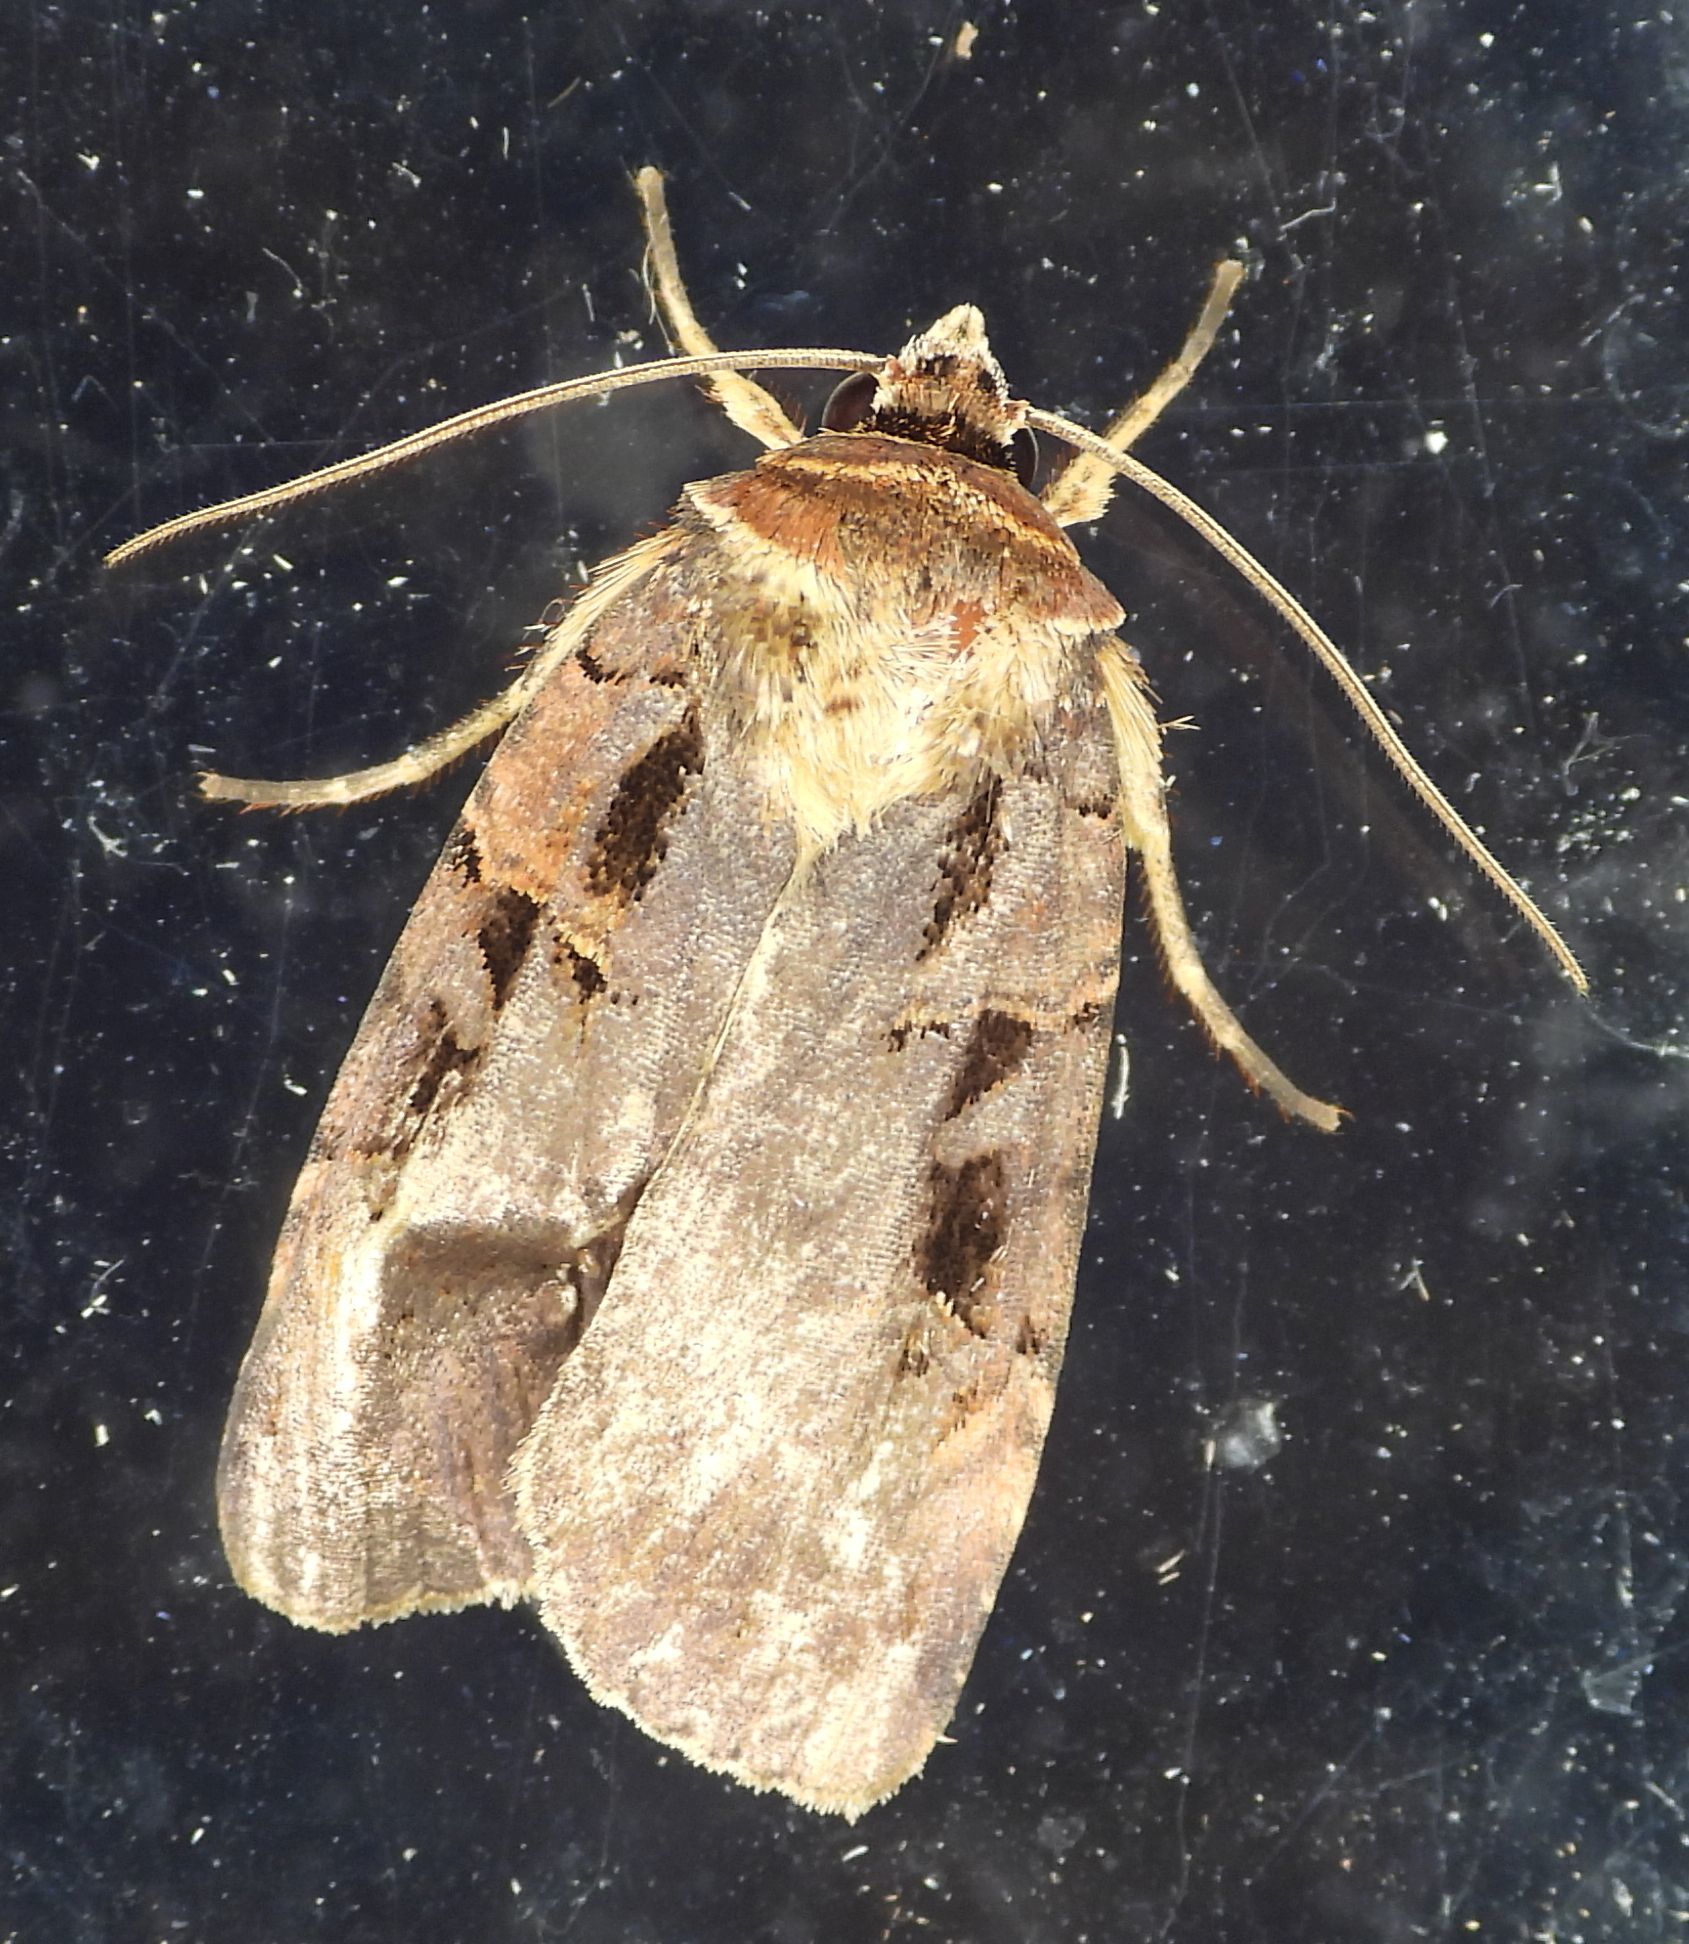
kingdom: Animalia
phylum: Arthropoda
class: Insecta
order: Lepidoptera
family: Noctuidae
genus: Pseudohermonassa
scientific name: Pseudohermonassa bicarnea
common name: Pink spotted dart
